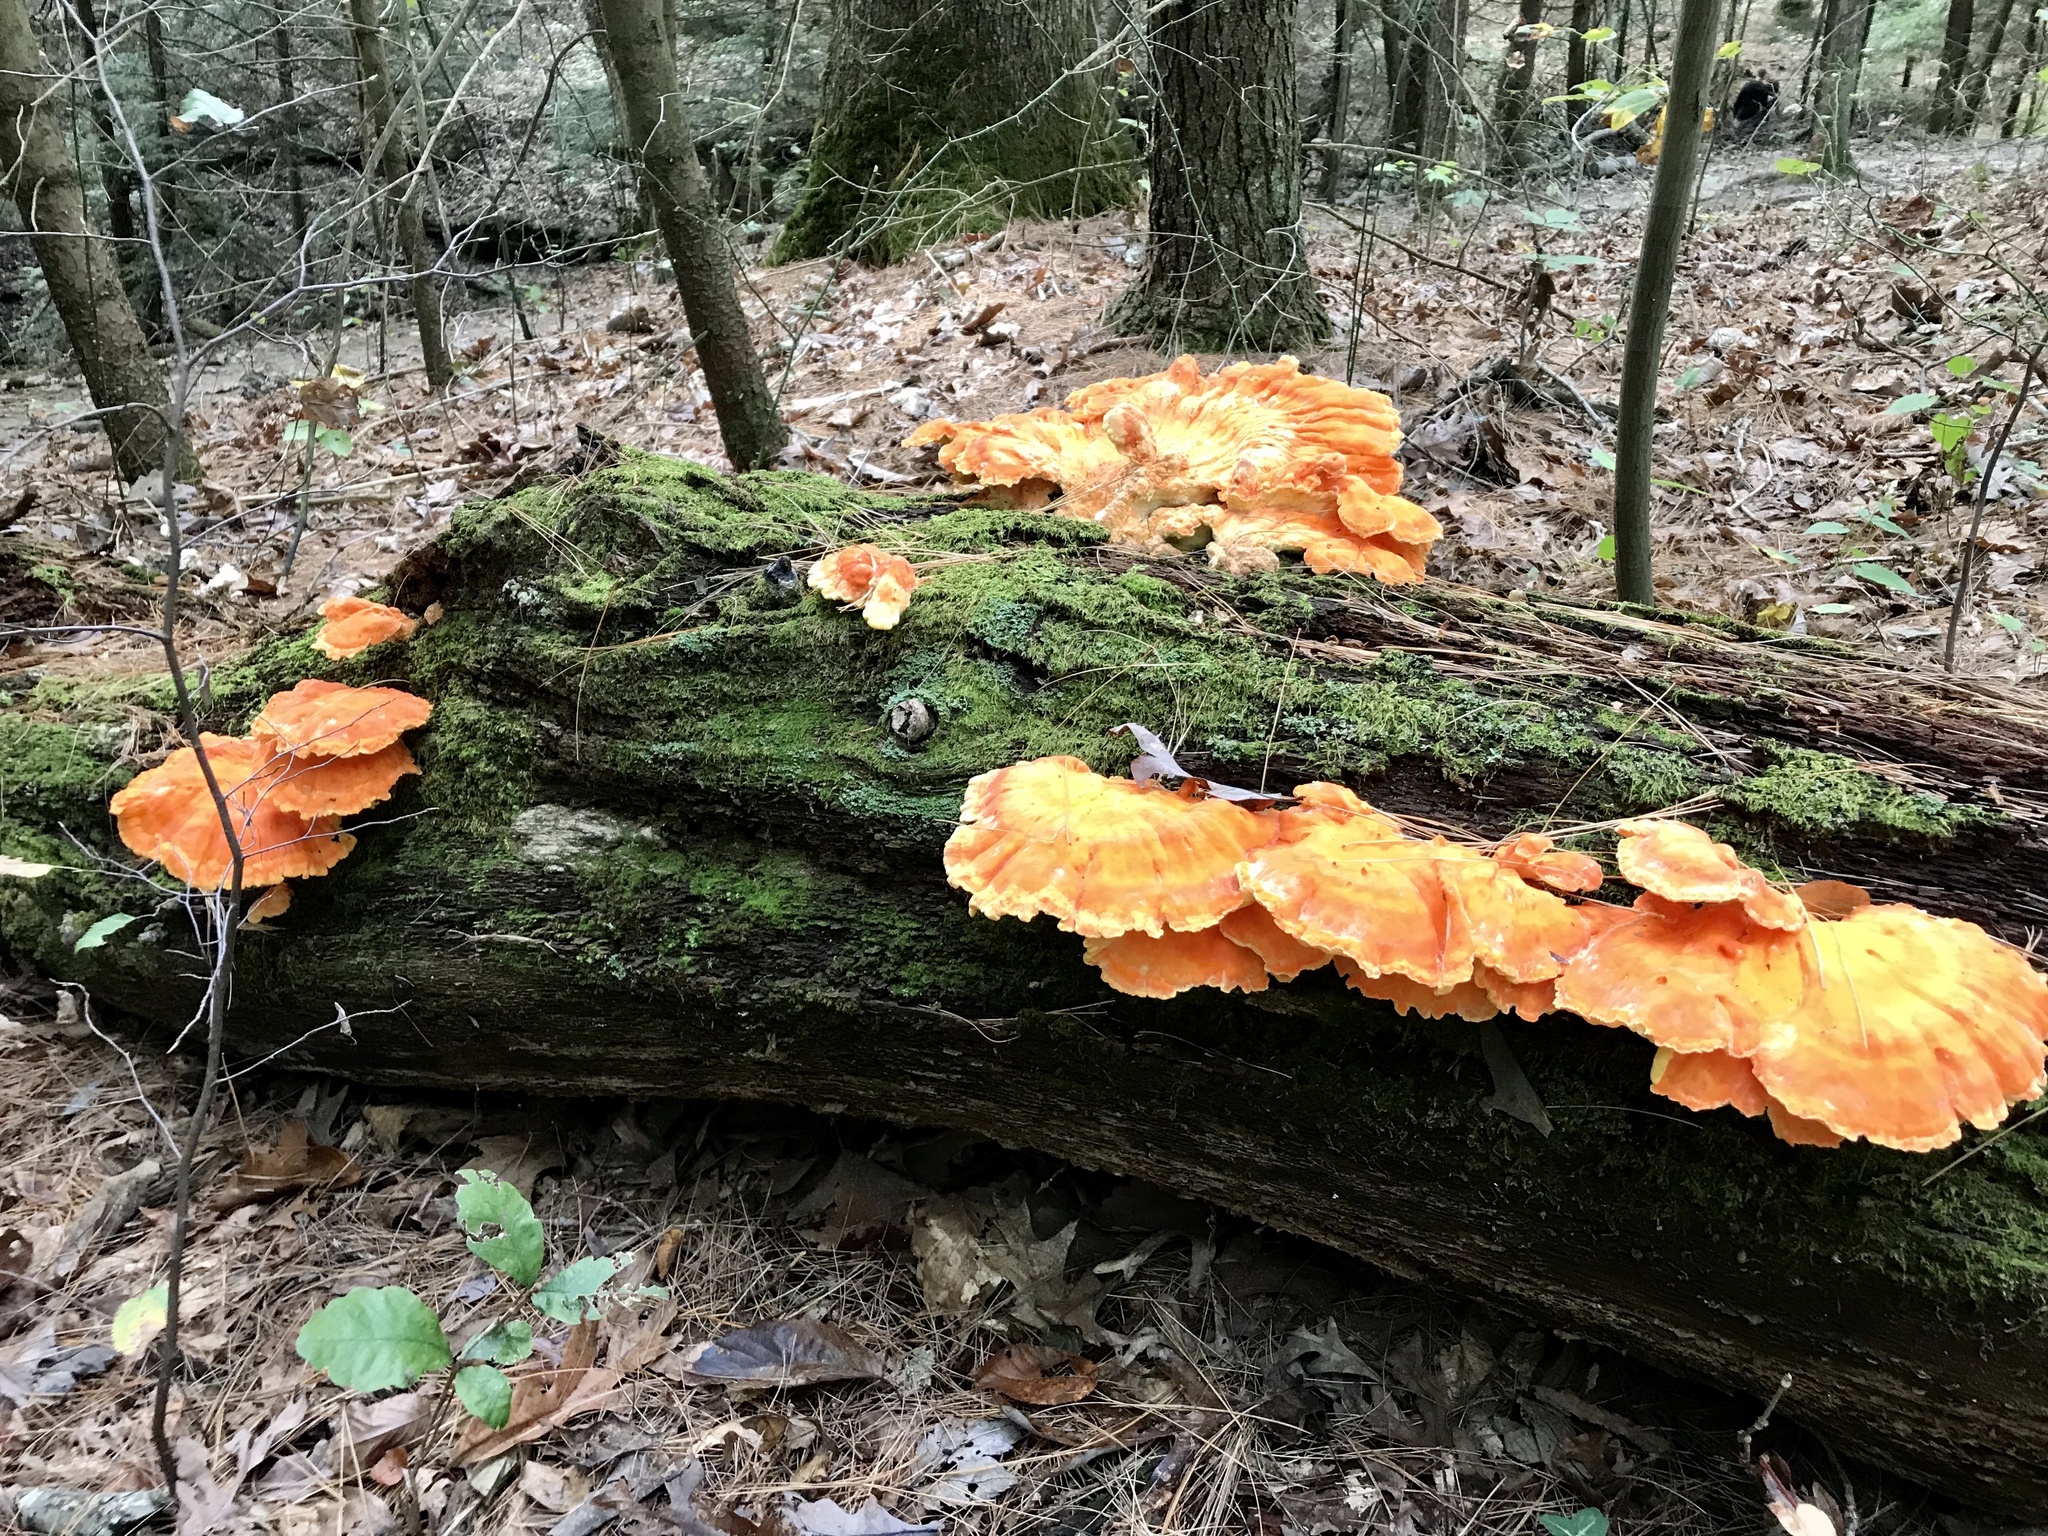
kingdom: Fungi
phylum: Basidiomycota
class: Agaricomycetes
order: Polyporales
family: Laetiporaceae
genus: Laetiporus
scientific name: Laetiporus sulphureus
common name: Chicken of the woods
